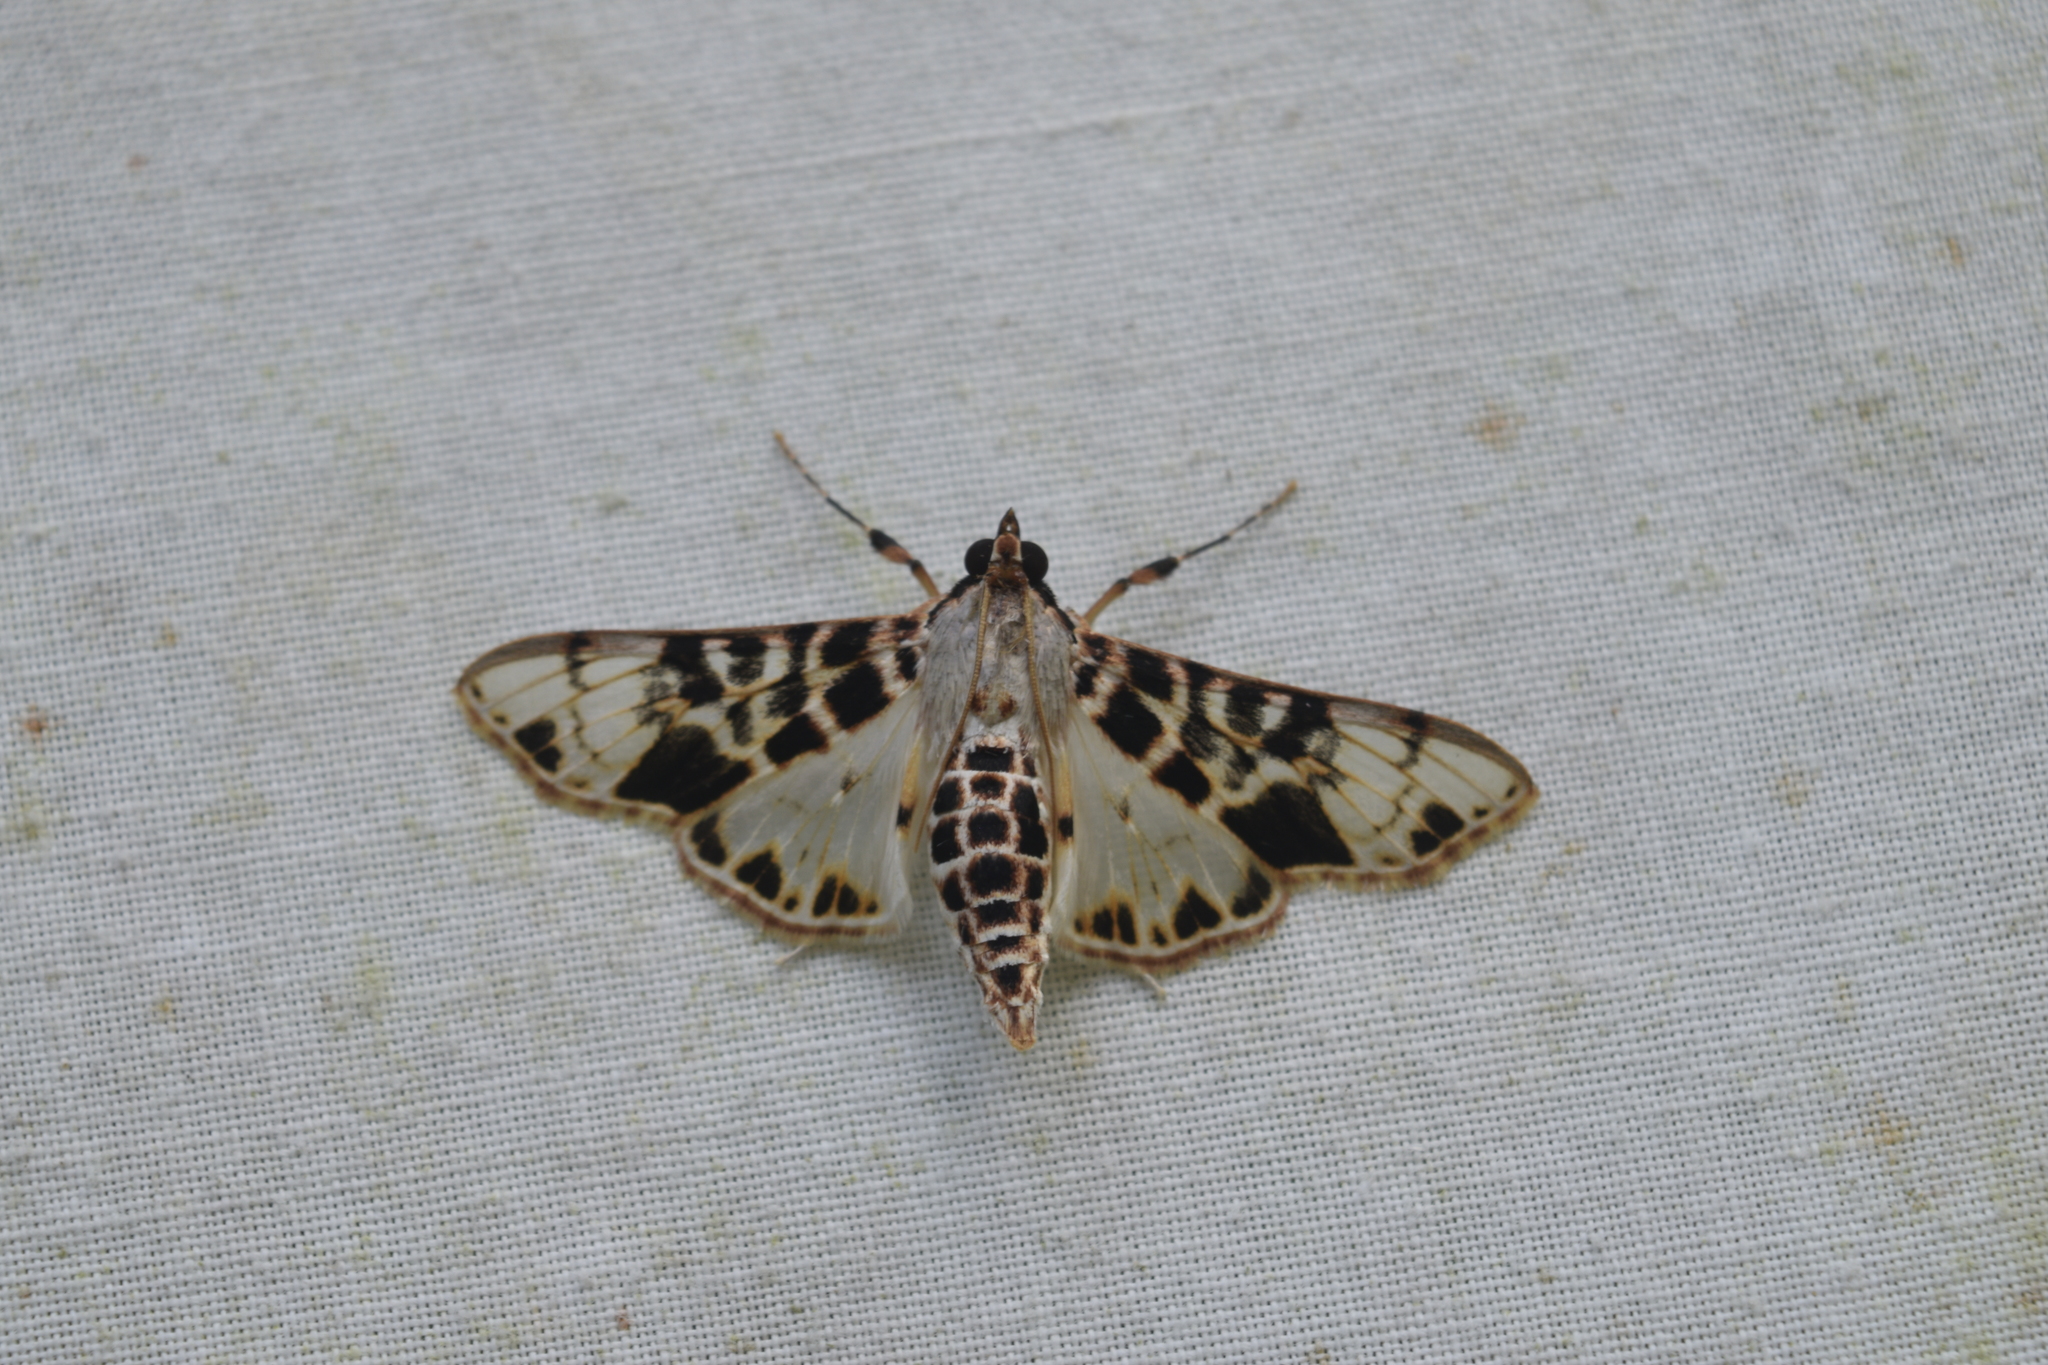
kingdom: Animalia
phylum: Arthropoda
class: Insecta
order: Lepidoptera
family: Crambidae
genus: Azochis
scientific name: Azochis pieralis
